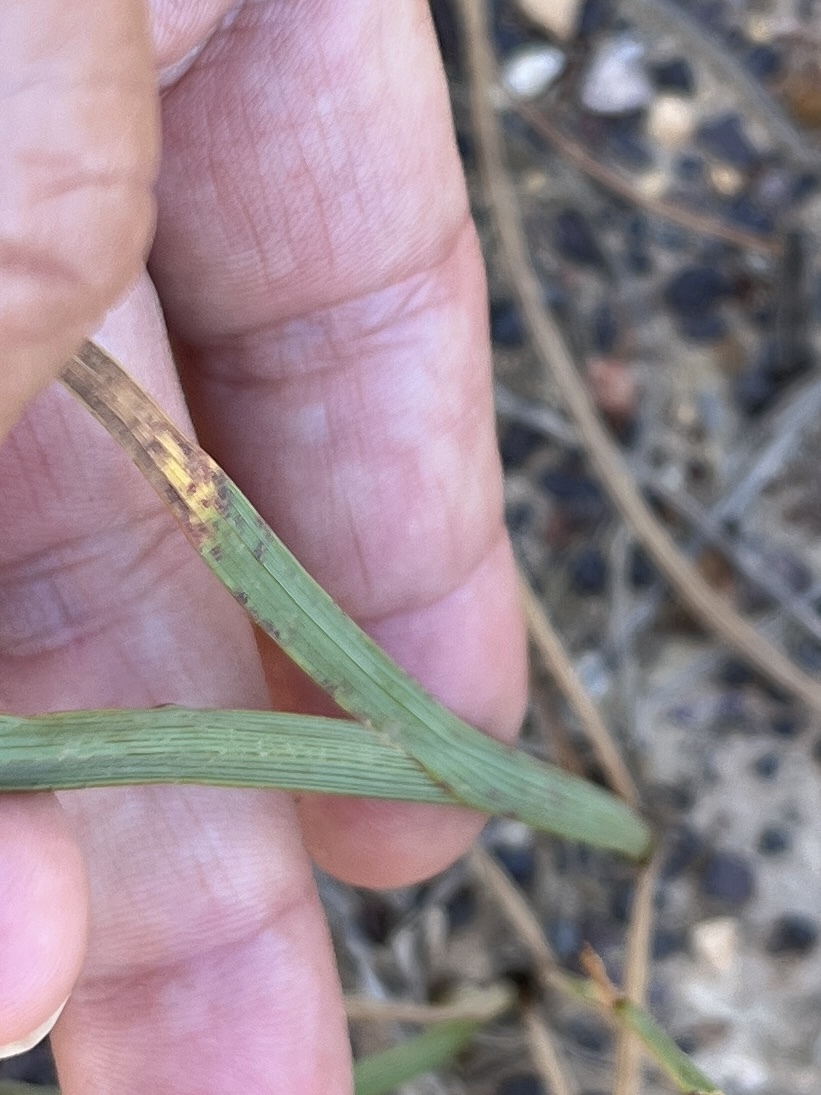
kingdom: Plantae
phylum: Tracheophyta
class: Liliopsida
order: Asparagales
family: Iridaceae
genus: Micranthus
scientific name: Micranthus plantagineus
